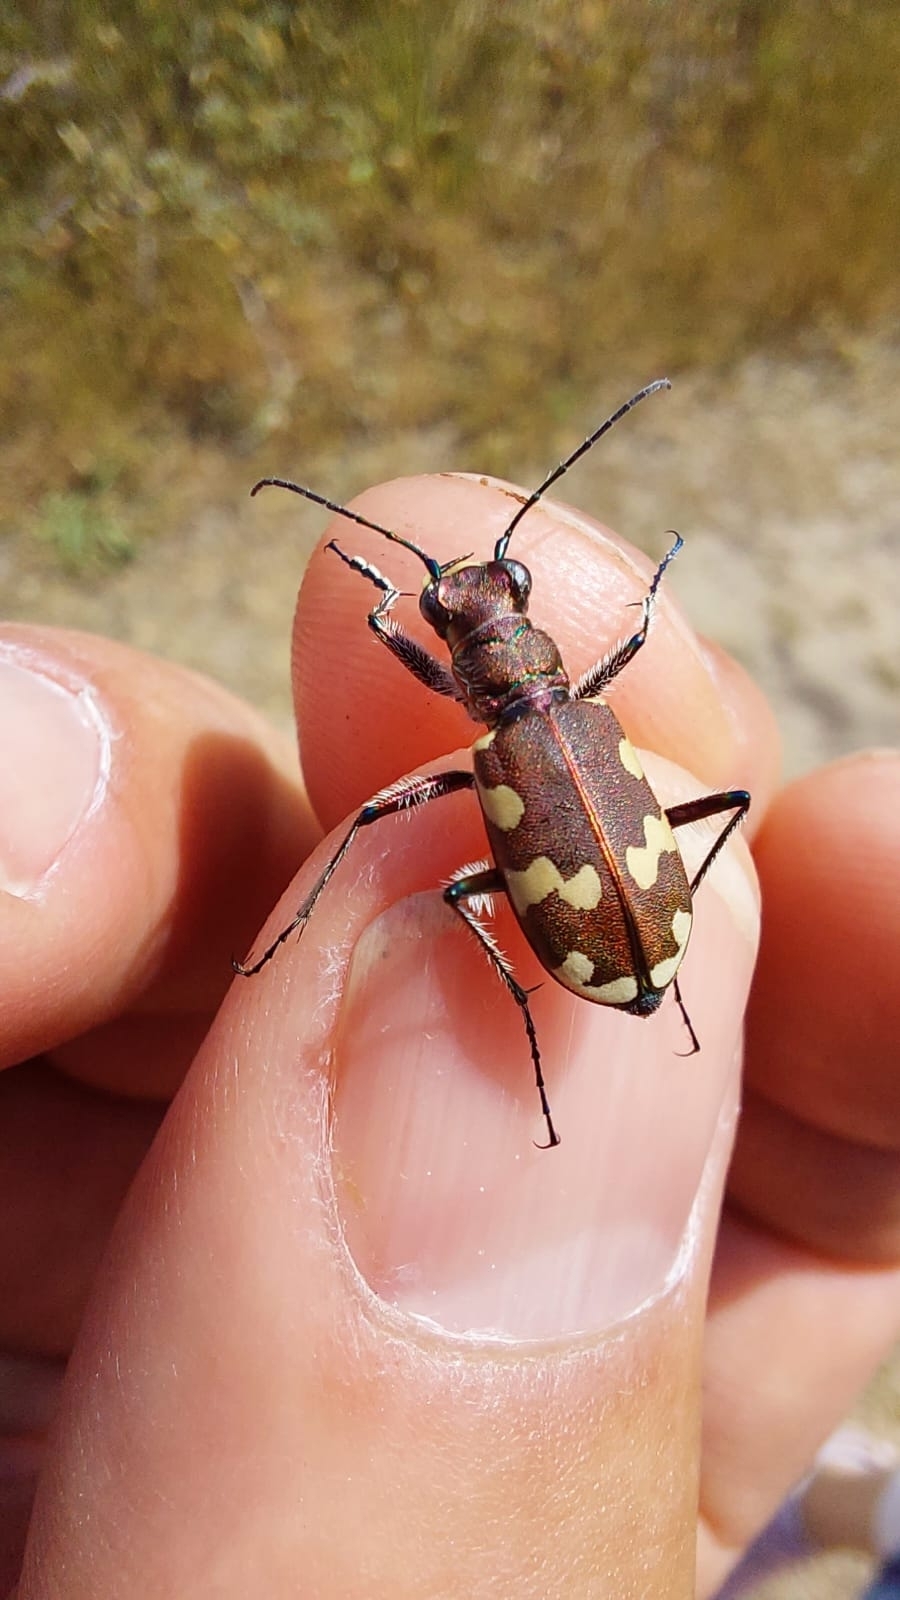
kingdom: Animalia
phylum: Arthropoda
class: Insecta
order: Coleoptera
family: Carabidae
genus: Cicindela
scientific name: Cicindela hybrida
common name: Northern dune tiger beetle
